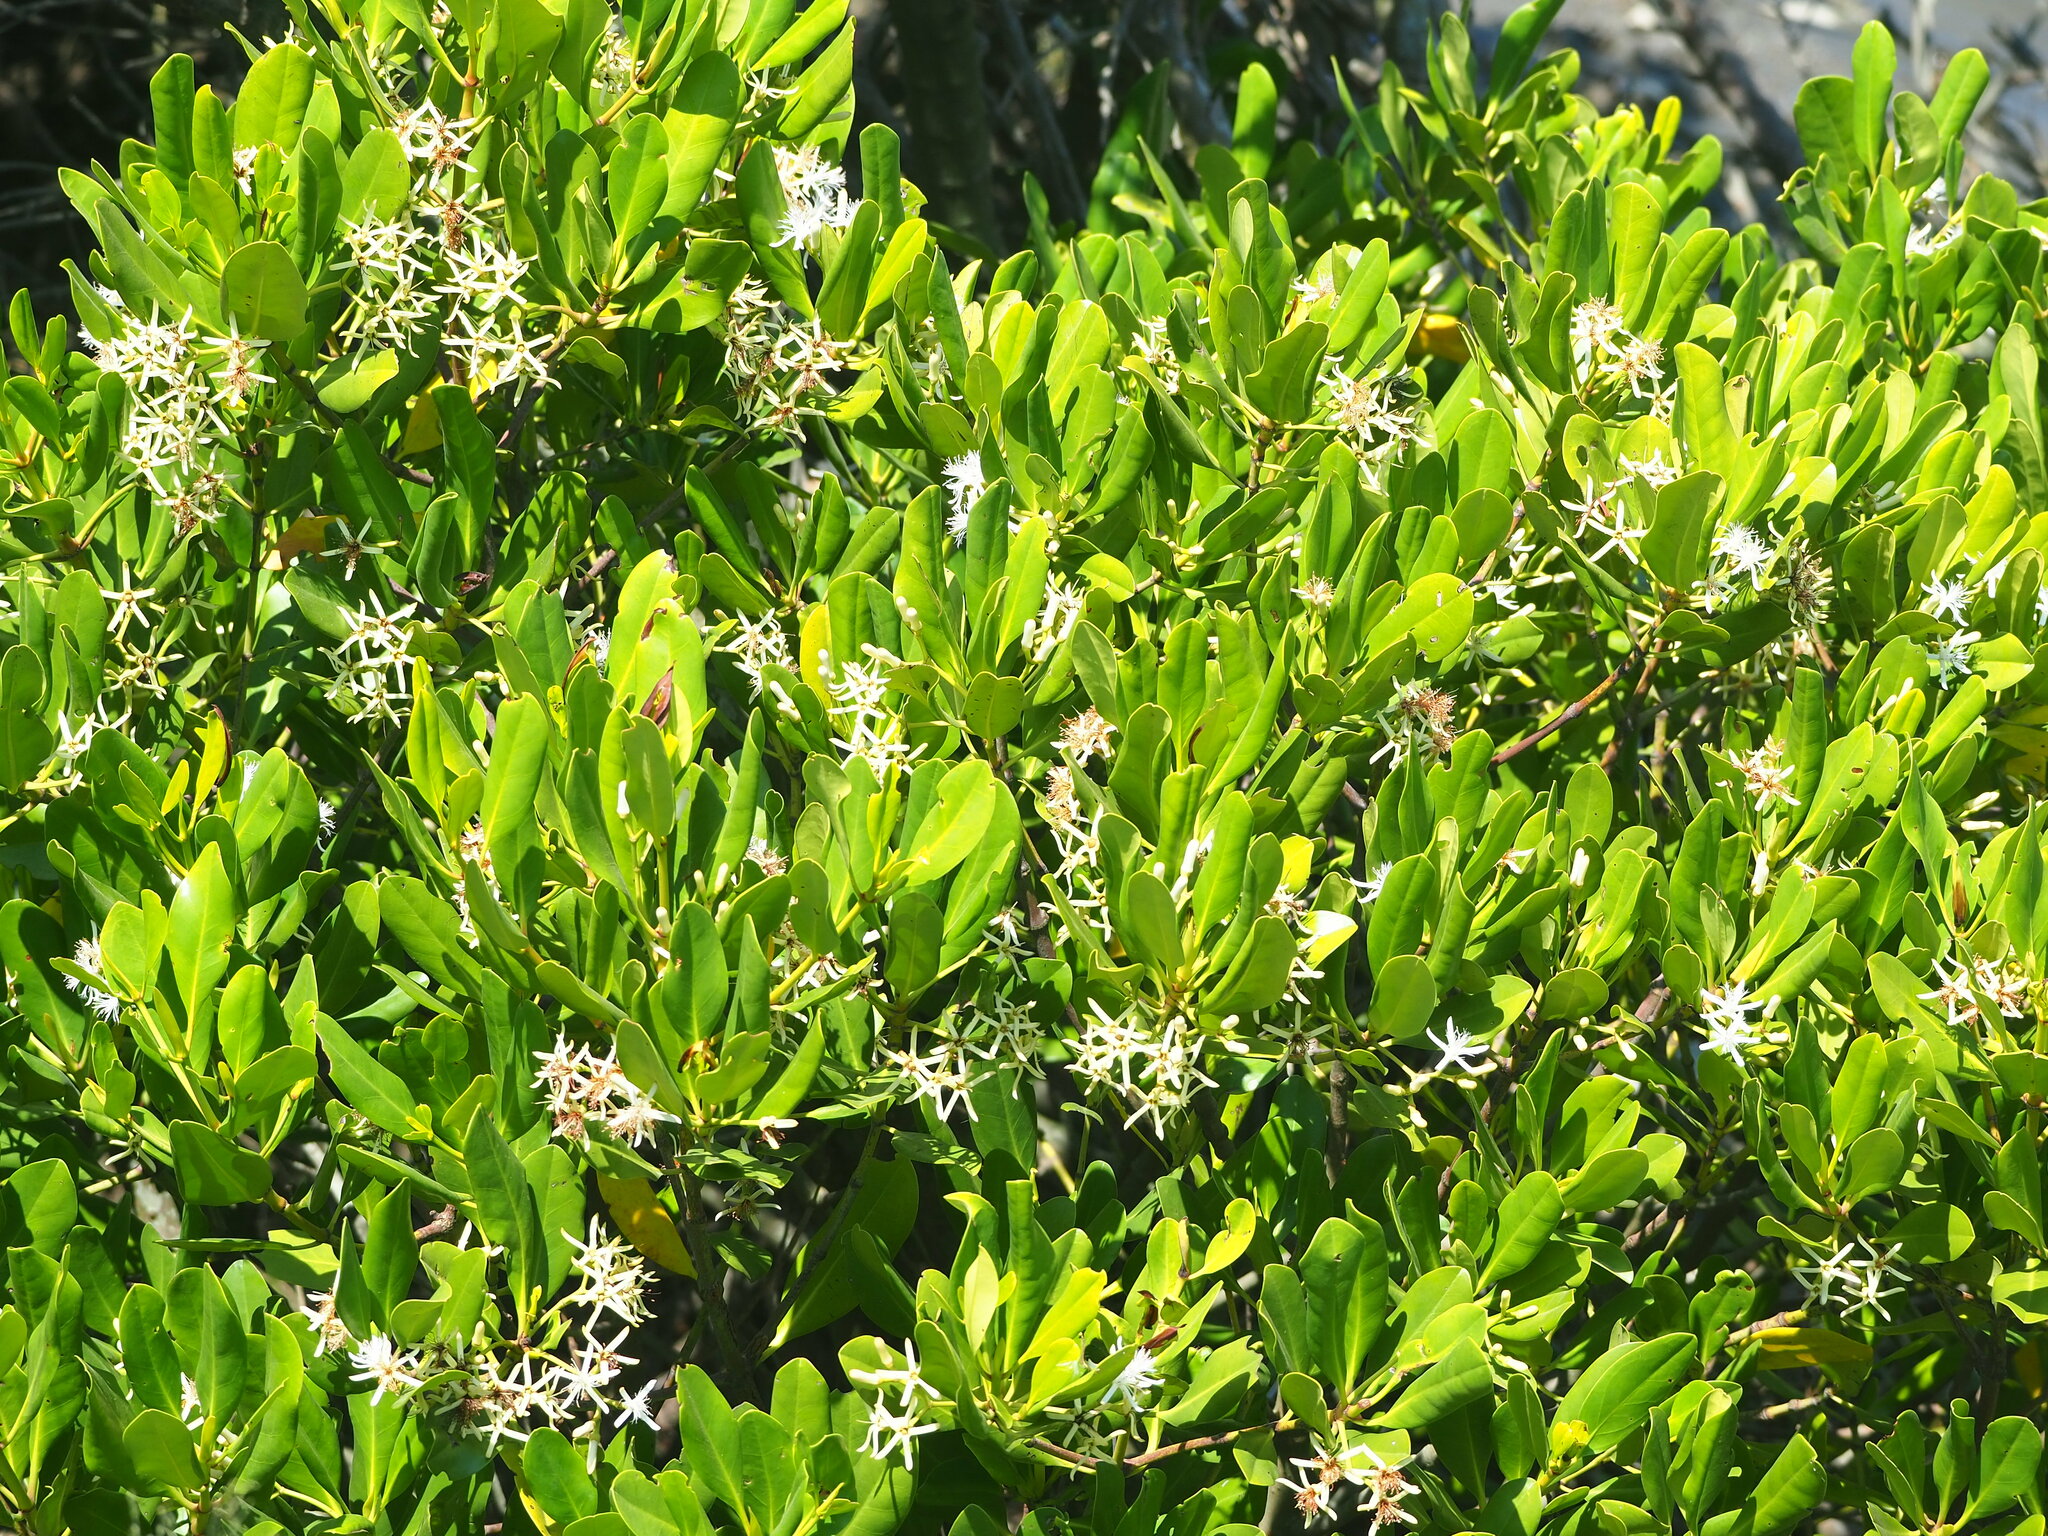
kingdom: Plantae
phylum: Tracheophyta
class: Magnoliopsida
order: Malpighiales
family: Rhizophoraceae
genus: Kandelia
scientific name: Kandelia obovata
